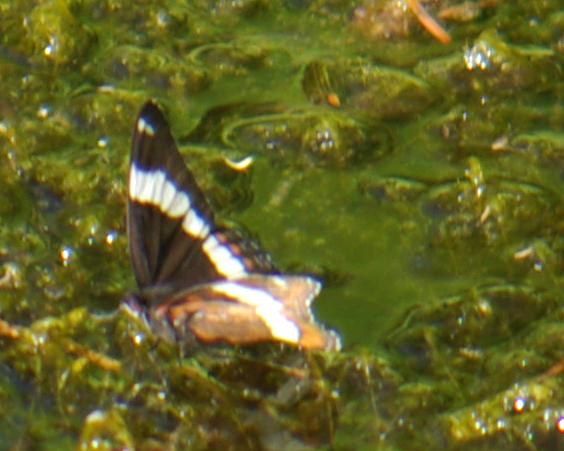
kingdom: Animalia
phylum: Arthropoda
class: Insecta
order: Lepidoptera
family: Nymphalidae
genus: Limenitis
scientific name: Limenitis arthemis
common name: Red-spotted admiral
